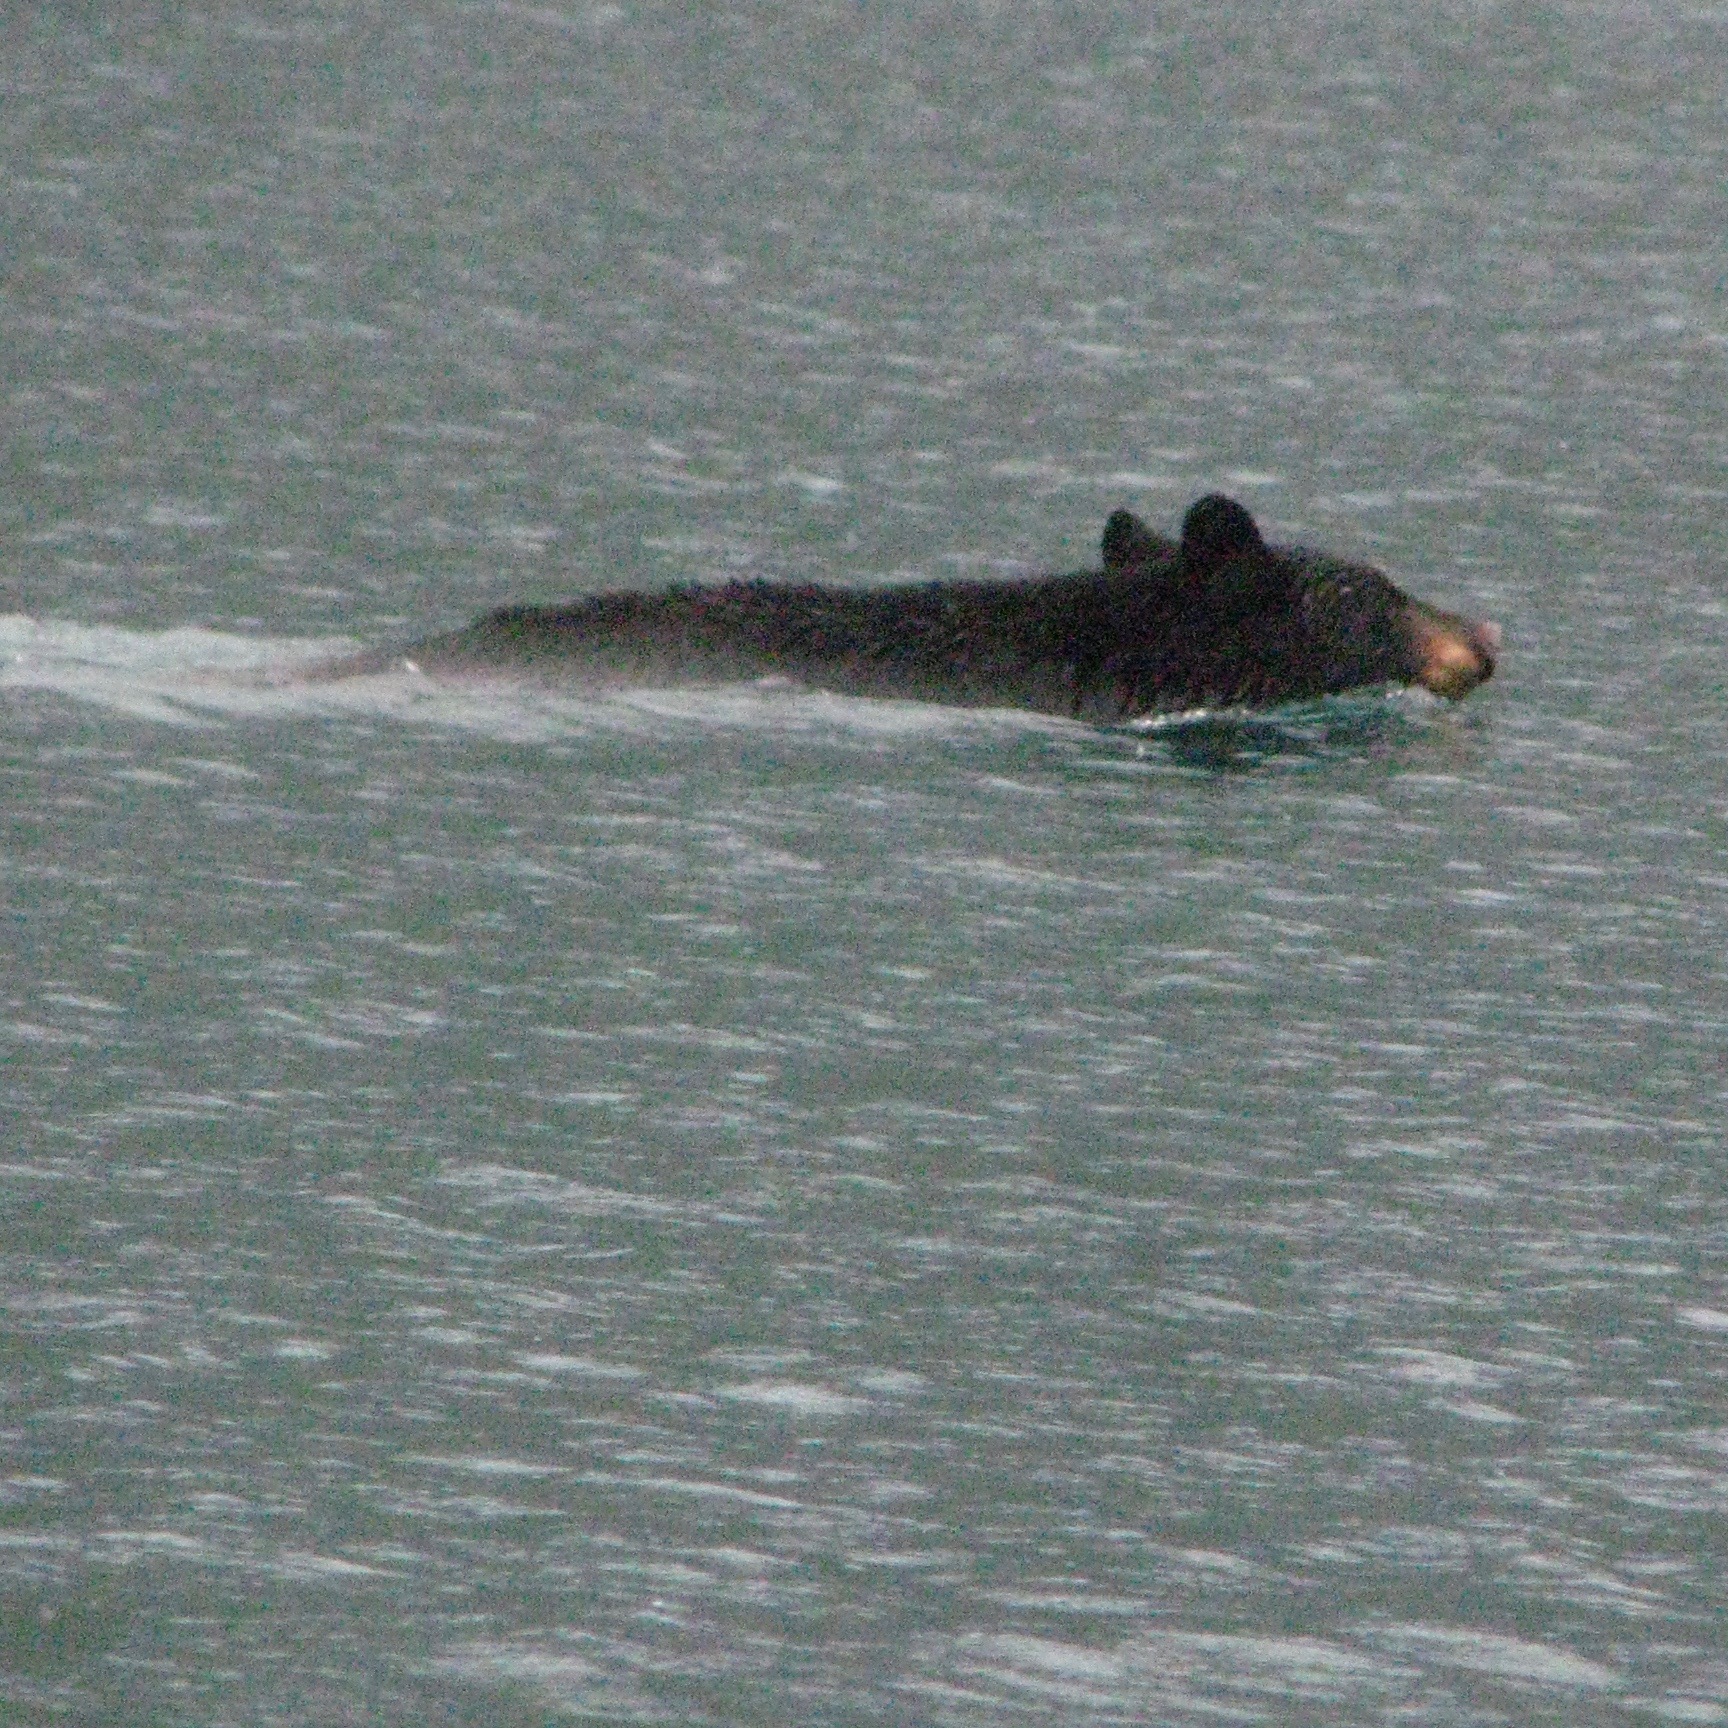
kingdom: Animalia
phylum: Chordata
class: Mammalia
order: Carnivora
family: Ursidae
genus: Ursus
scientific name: Ursus americanus
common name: American black bear
